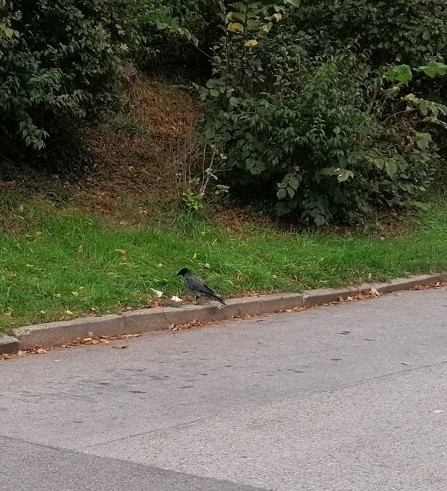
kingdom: Animalia
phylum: Chordata
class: Aves
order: Passeriformes
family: Corvidae
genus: Corvus
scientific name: Corvus
